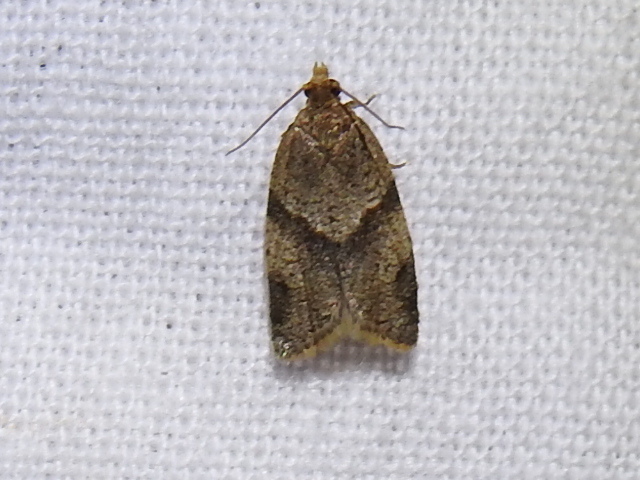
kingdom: Animalia
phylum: Arthropoda
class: Insecta
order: Lepidoptera
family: Tortricidae
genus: Clepsis
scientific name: Clepsis peritana
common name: Garden tortrix
